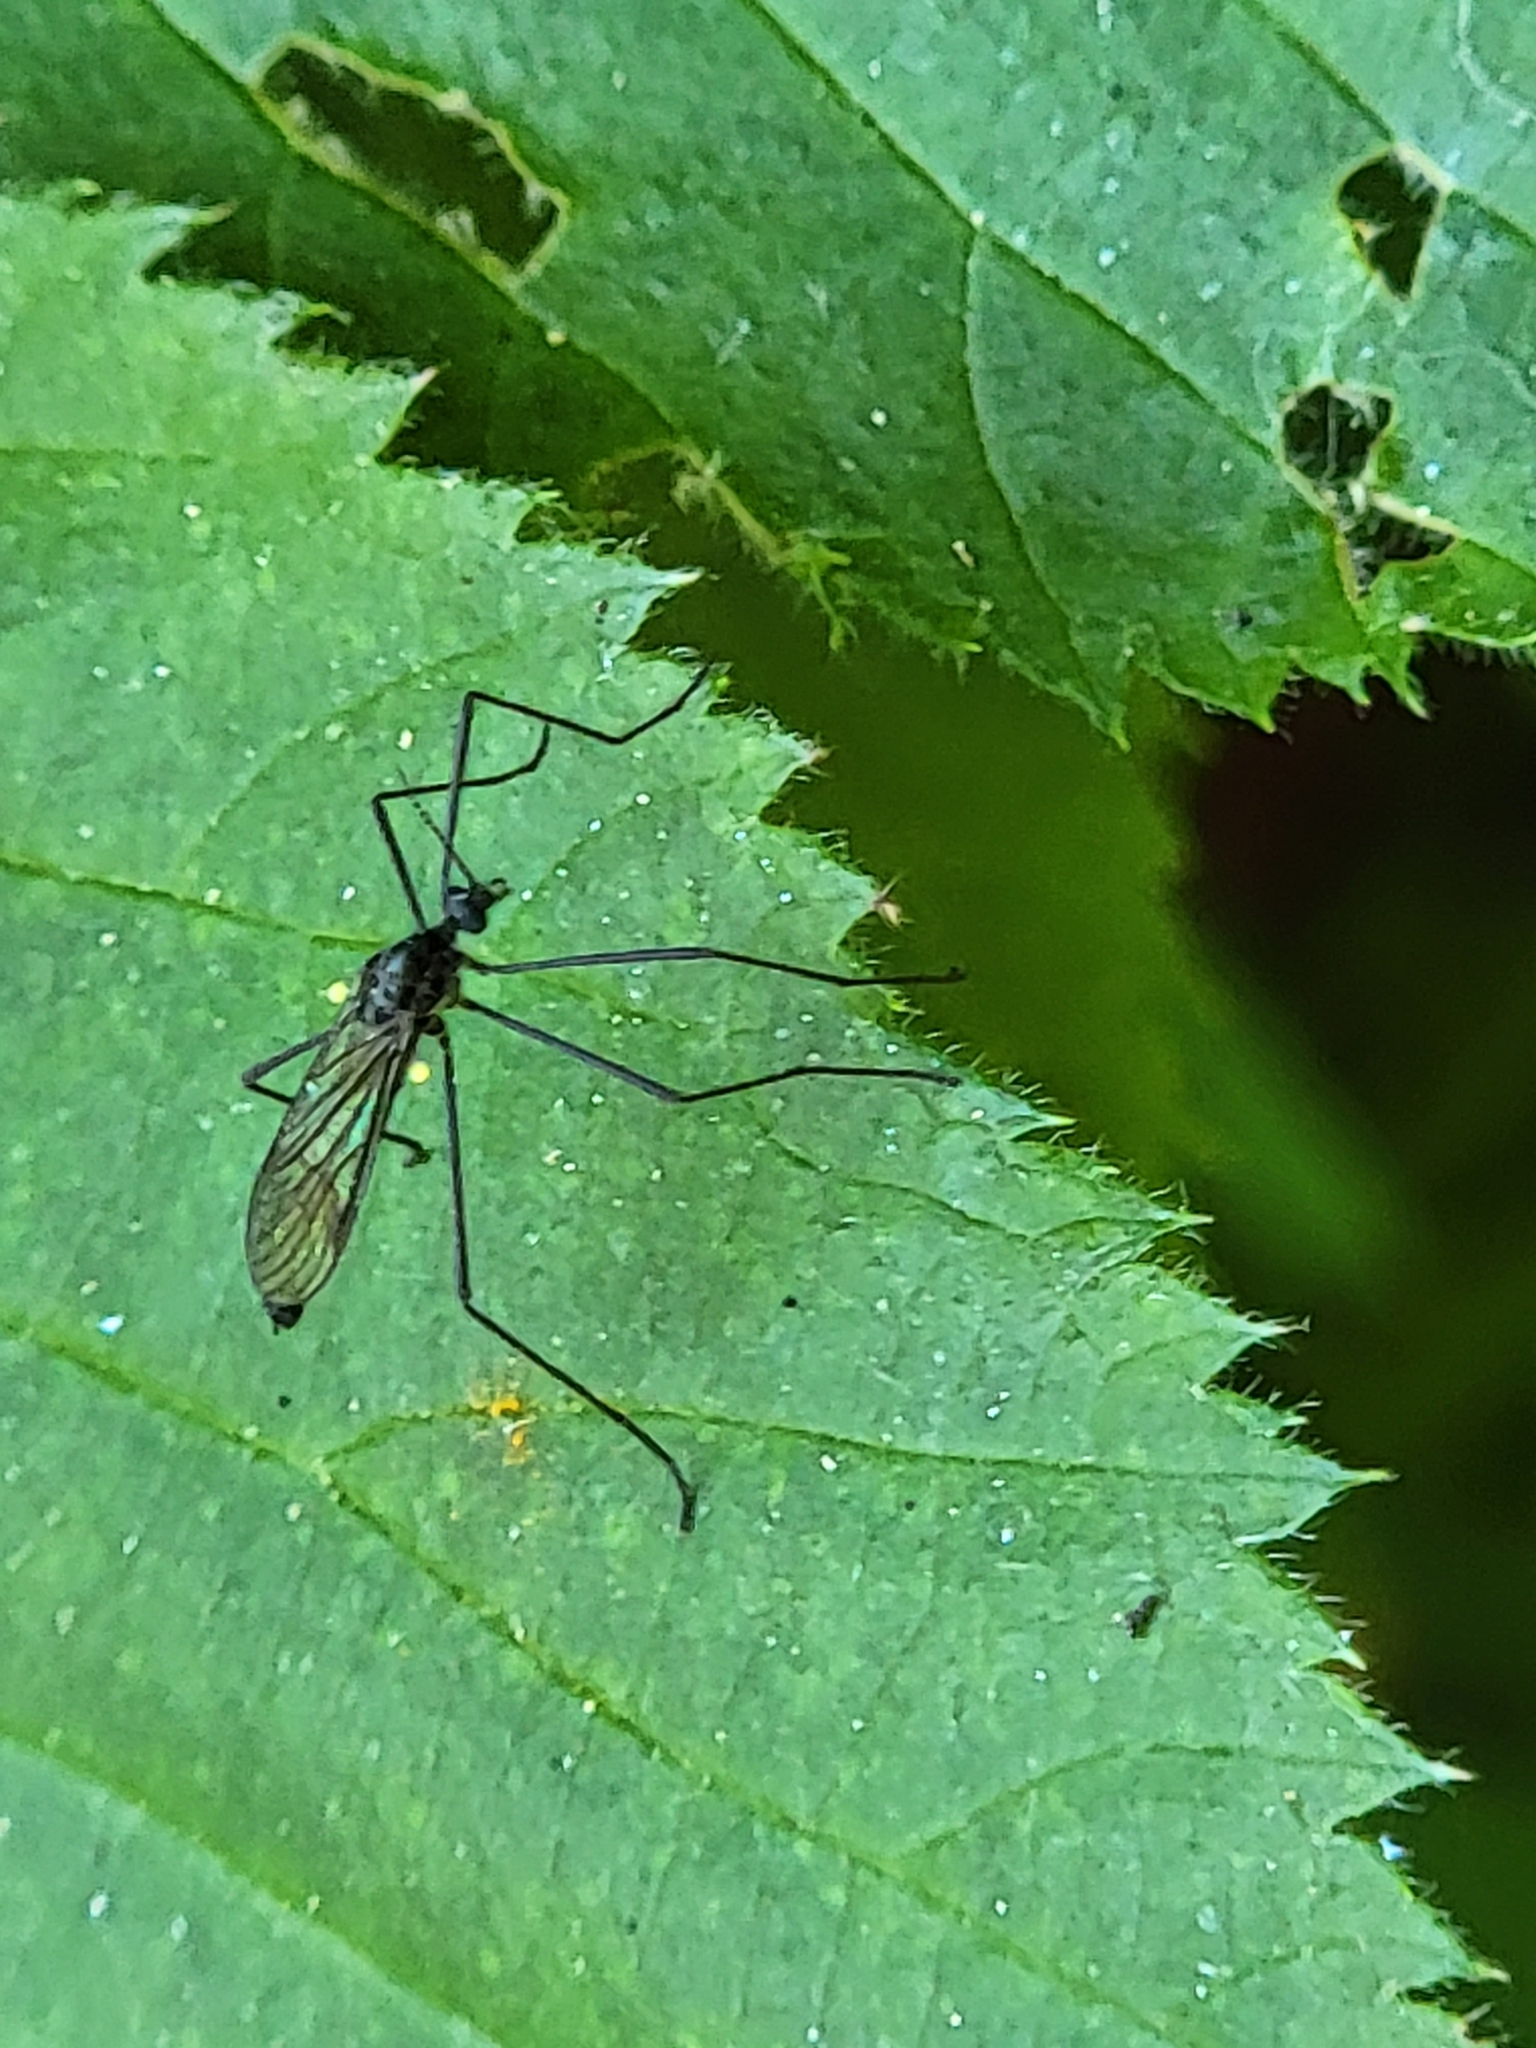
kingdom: Animalia
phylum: Arthropoda
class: Insecta
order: Diptera
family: Limoniidae
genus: Gnophomyia
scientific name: Gnophomyia tristissima
